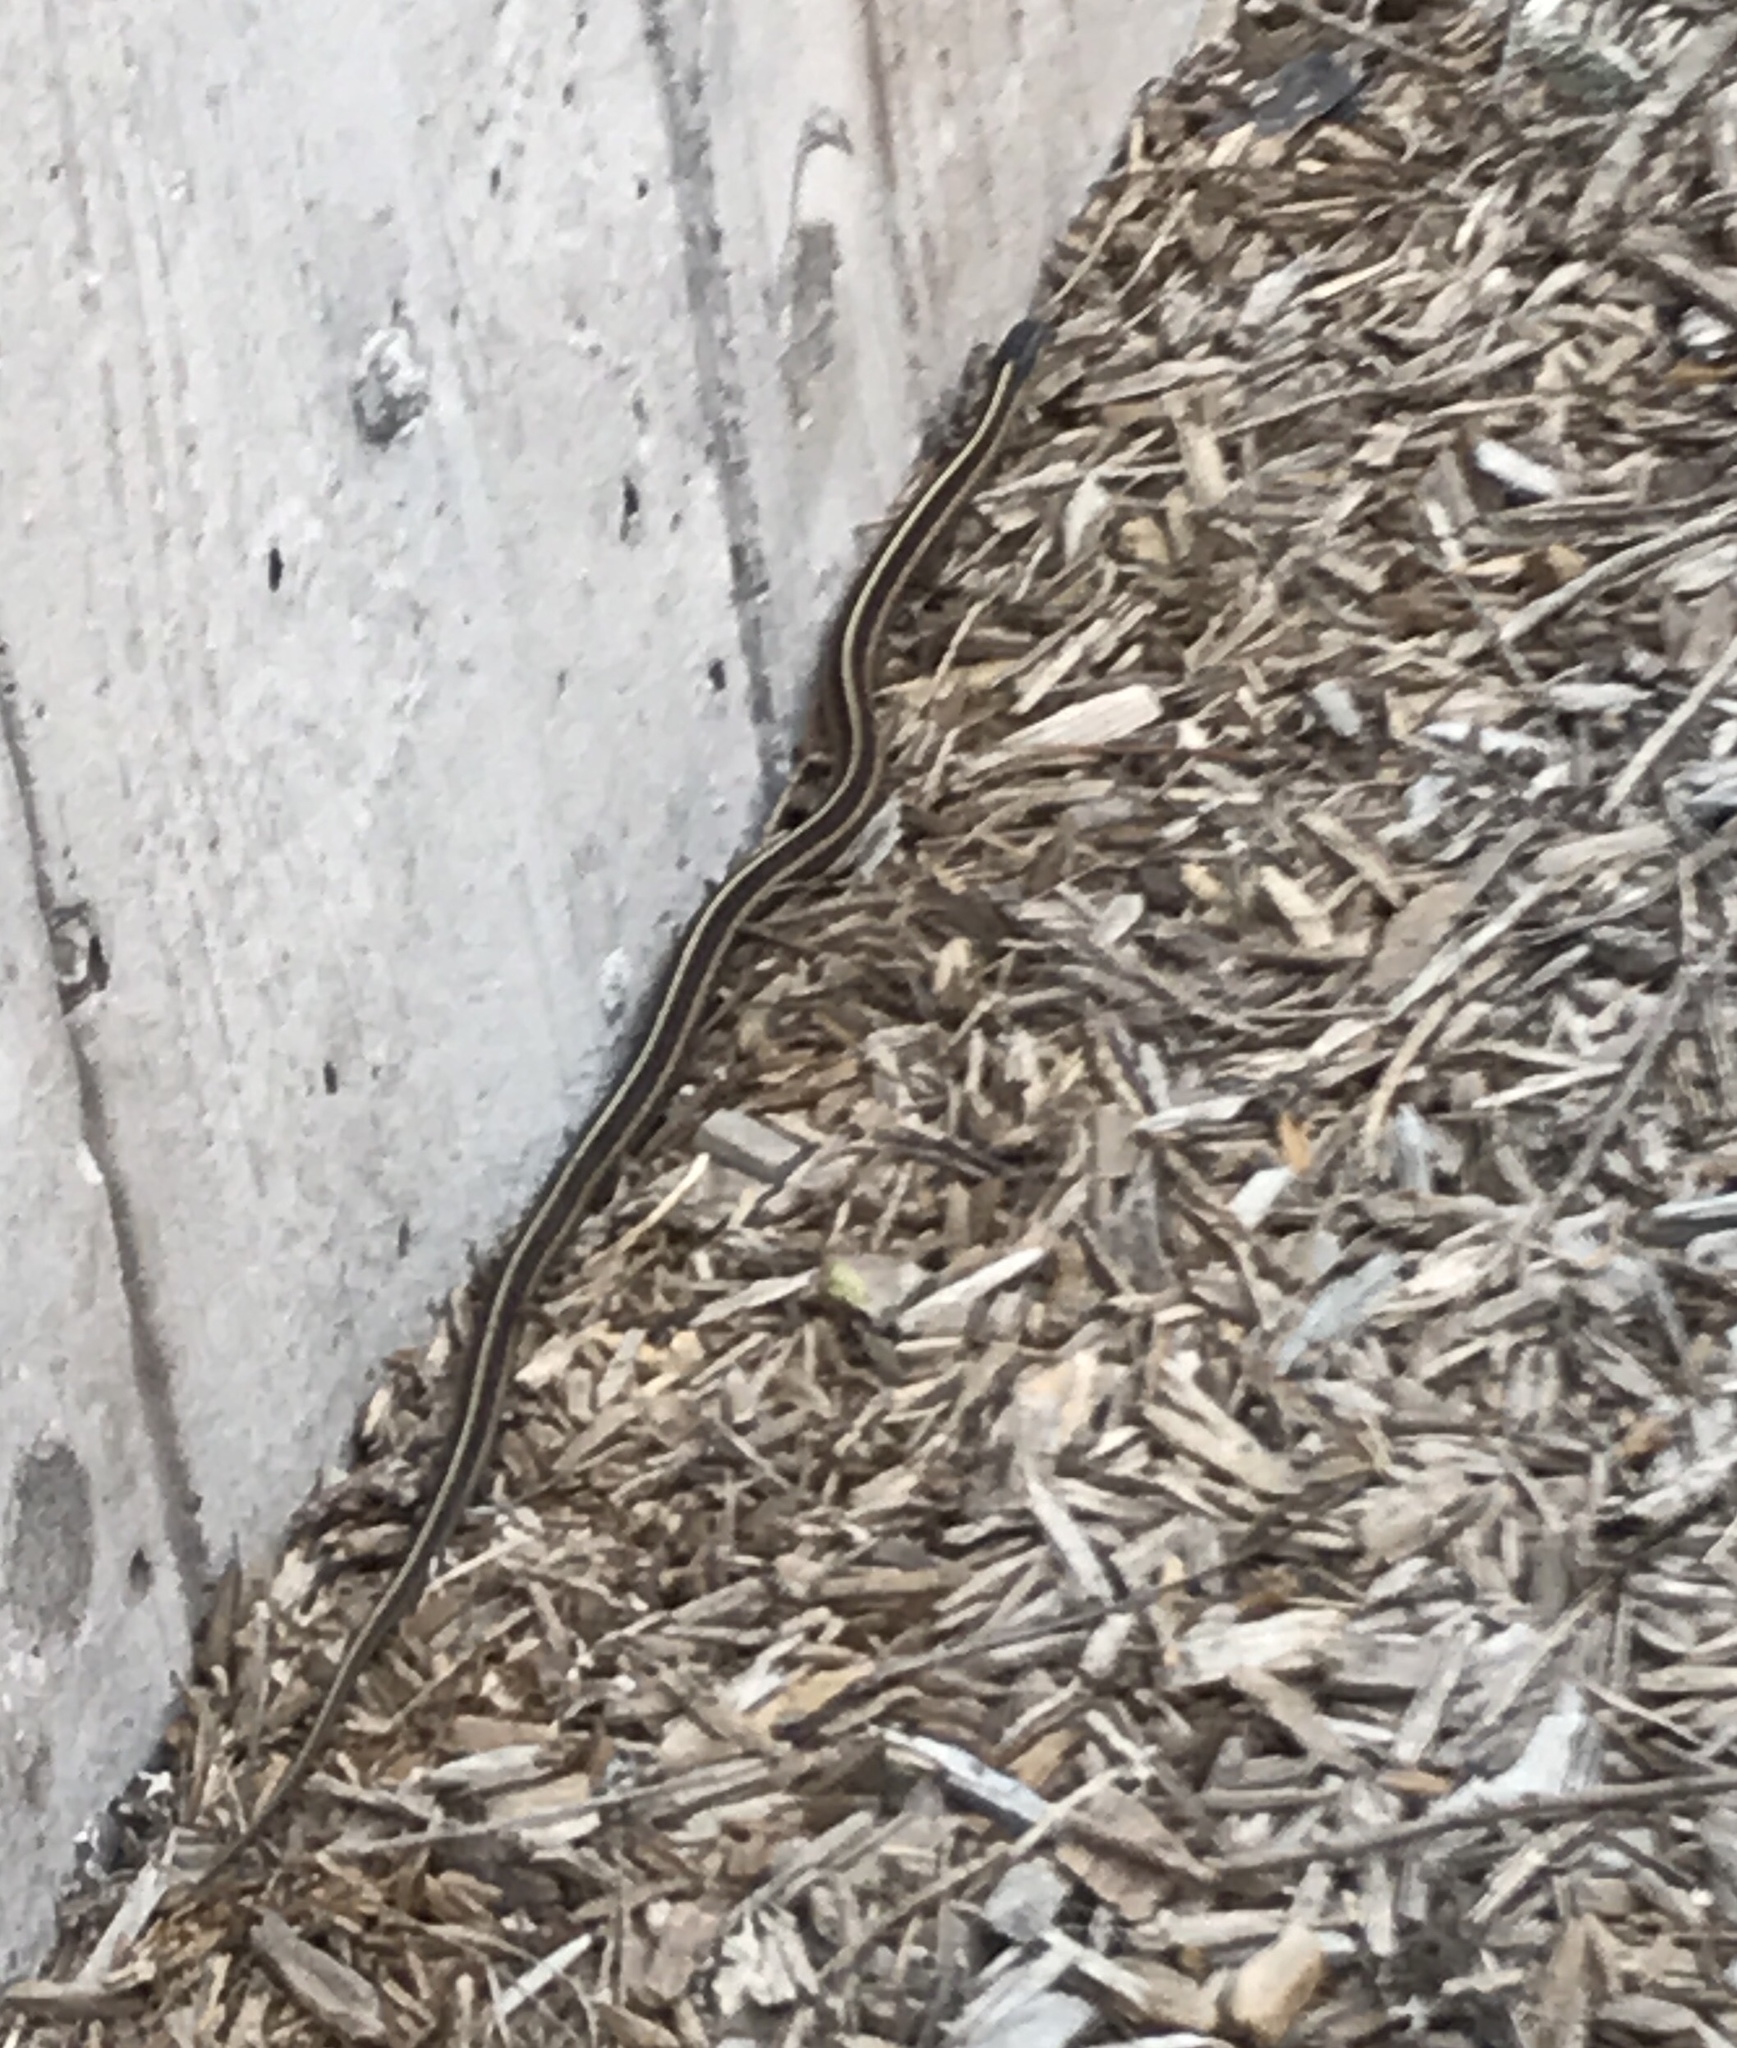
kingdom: Animalia
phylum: Chordata
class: Squamata
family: Colubridae
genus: Thamnophis
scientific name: Thamnophis elegans
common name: Western terrestrial garter snake
